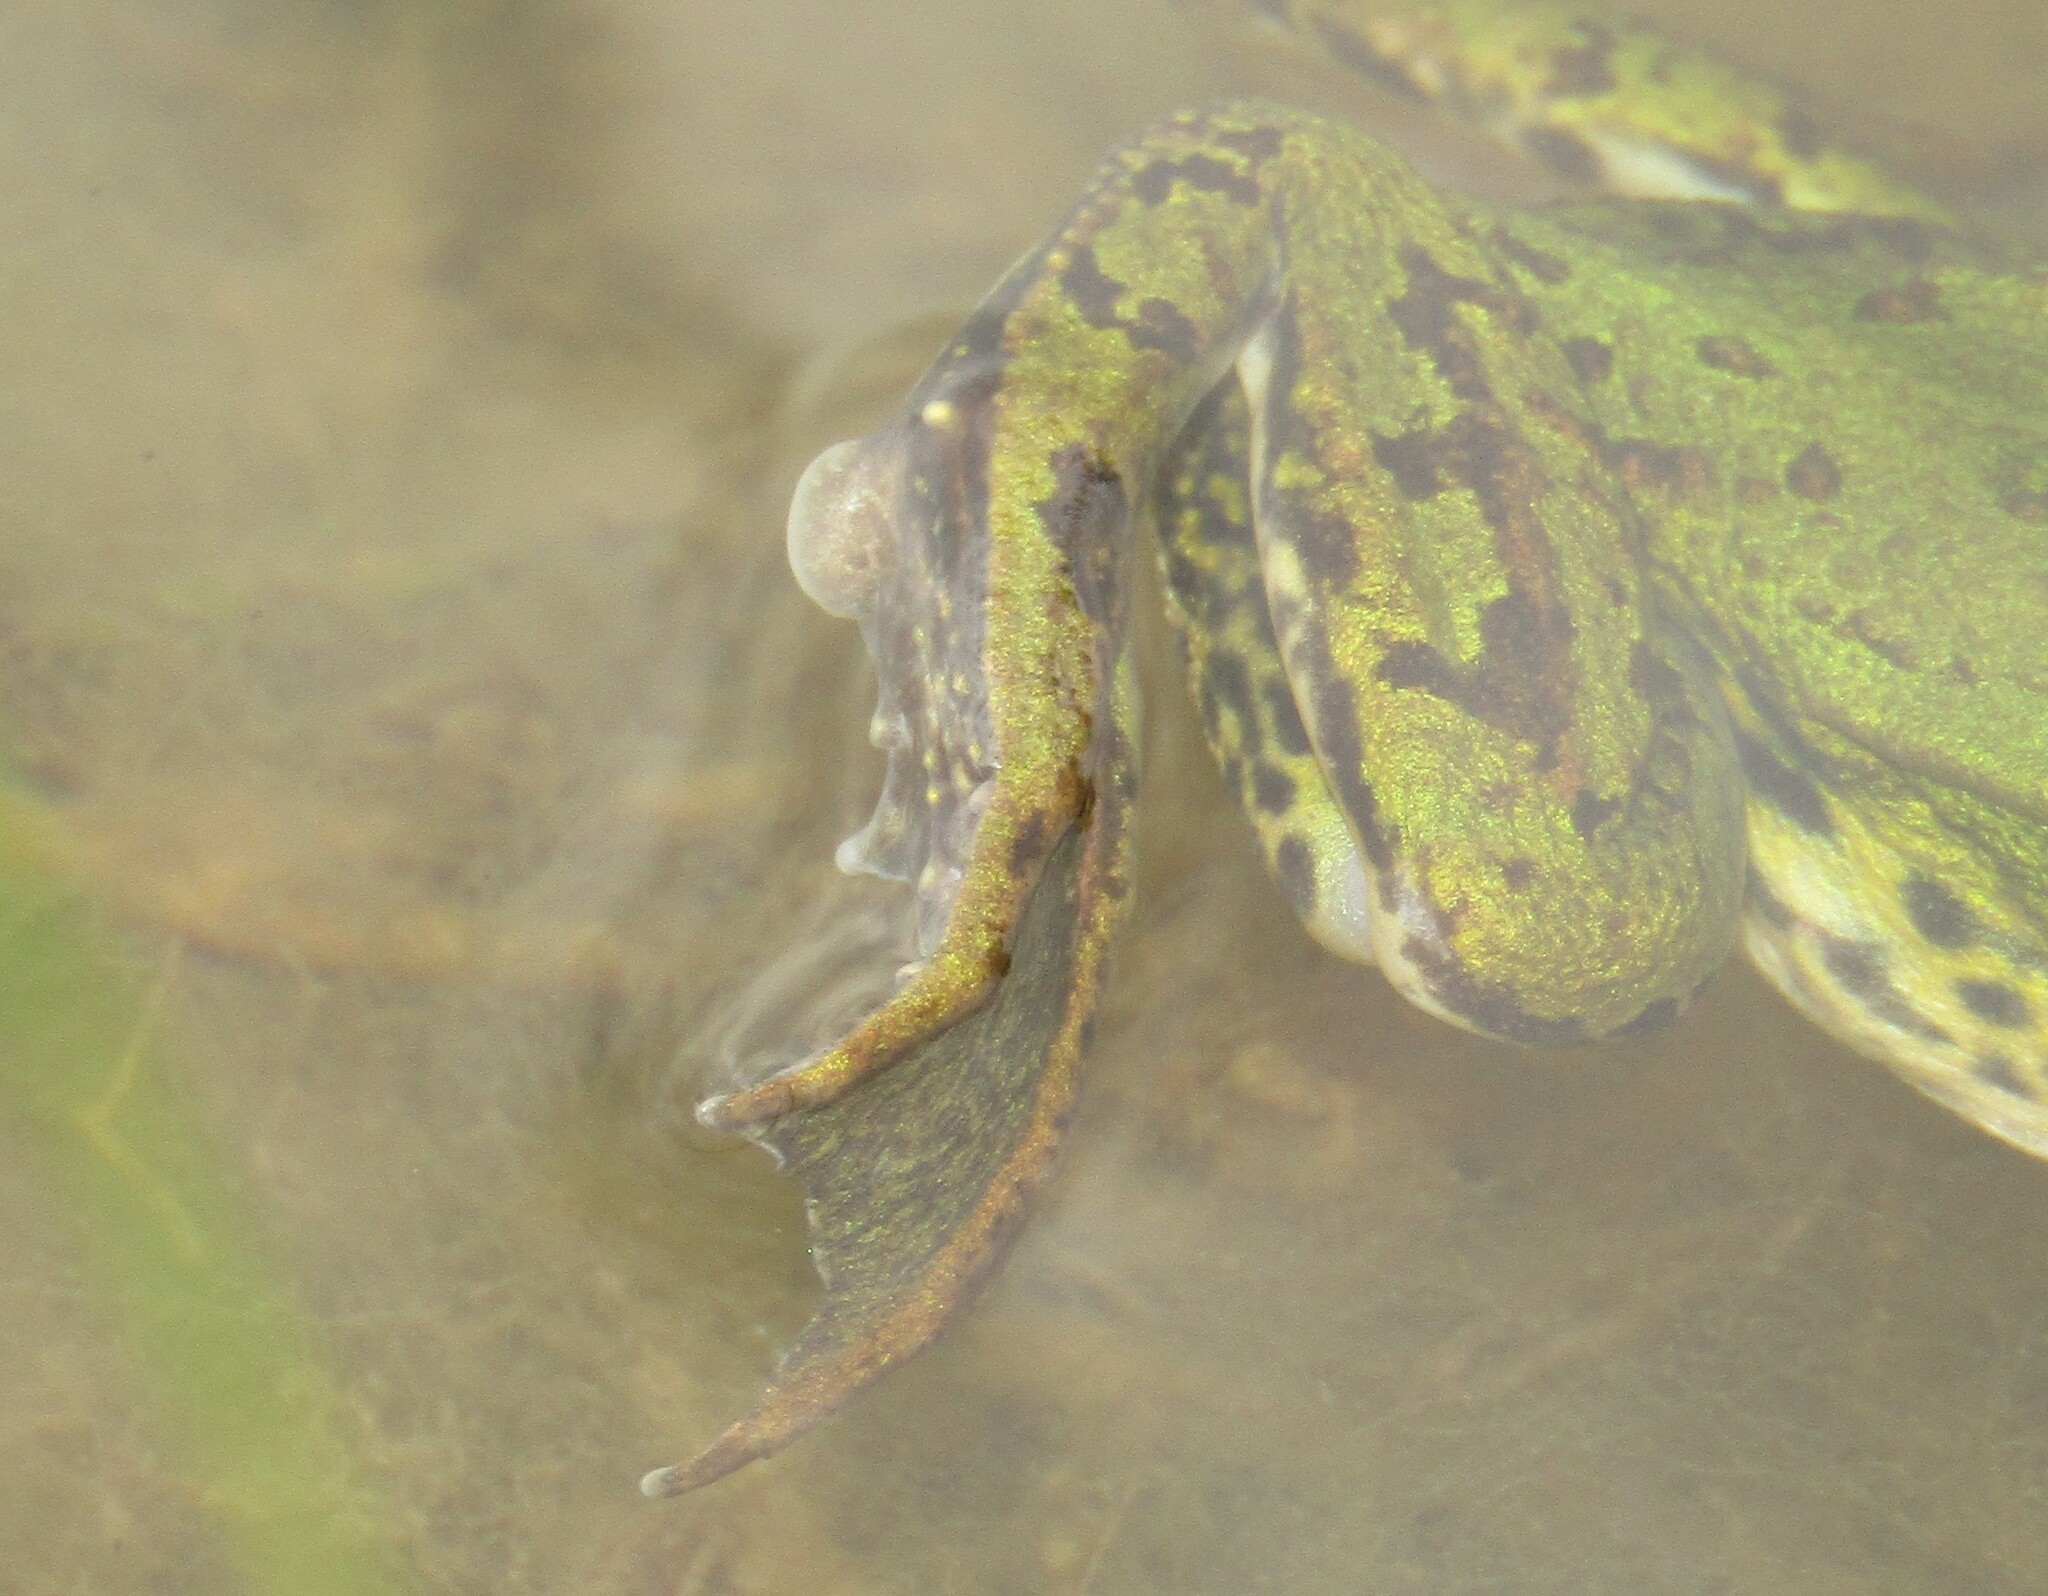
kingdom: Animalia
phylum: Chordata
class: Amphibia
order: Anura
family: Ranidae
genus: Pelophylax
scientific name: Pelophylax lessonae
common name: Pool frog
